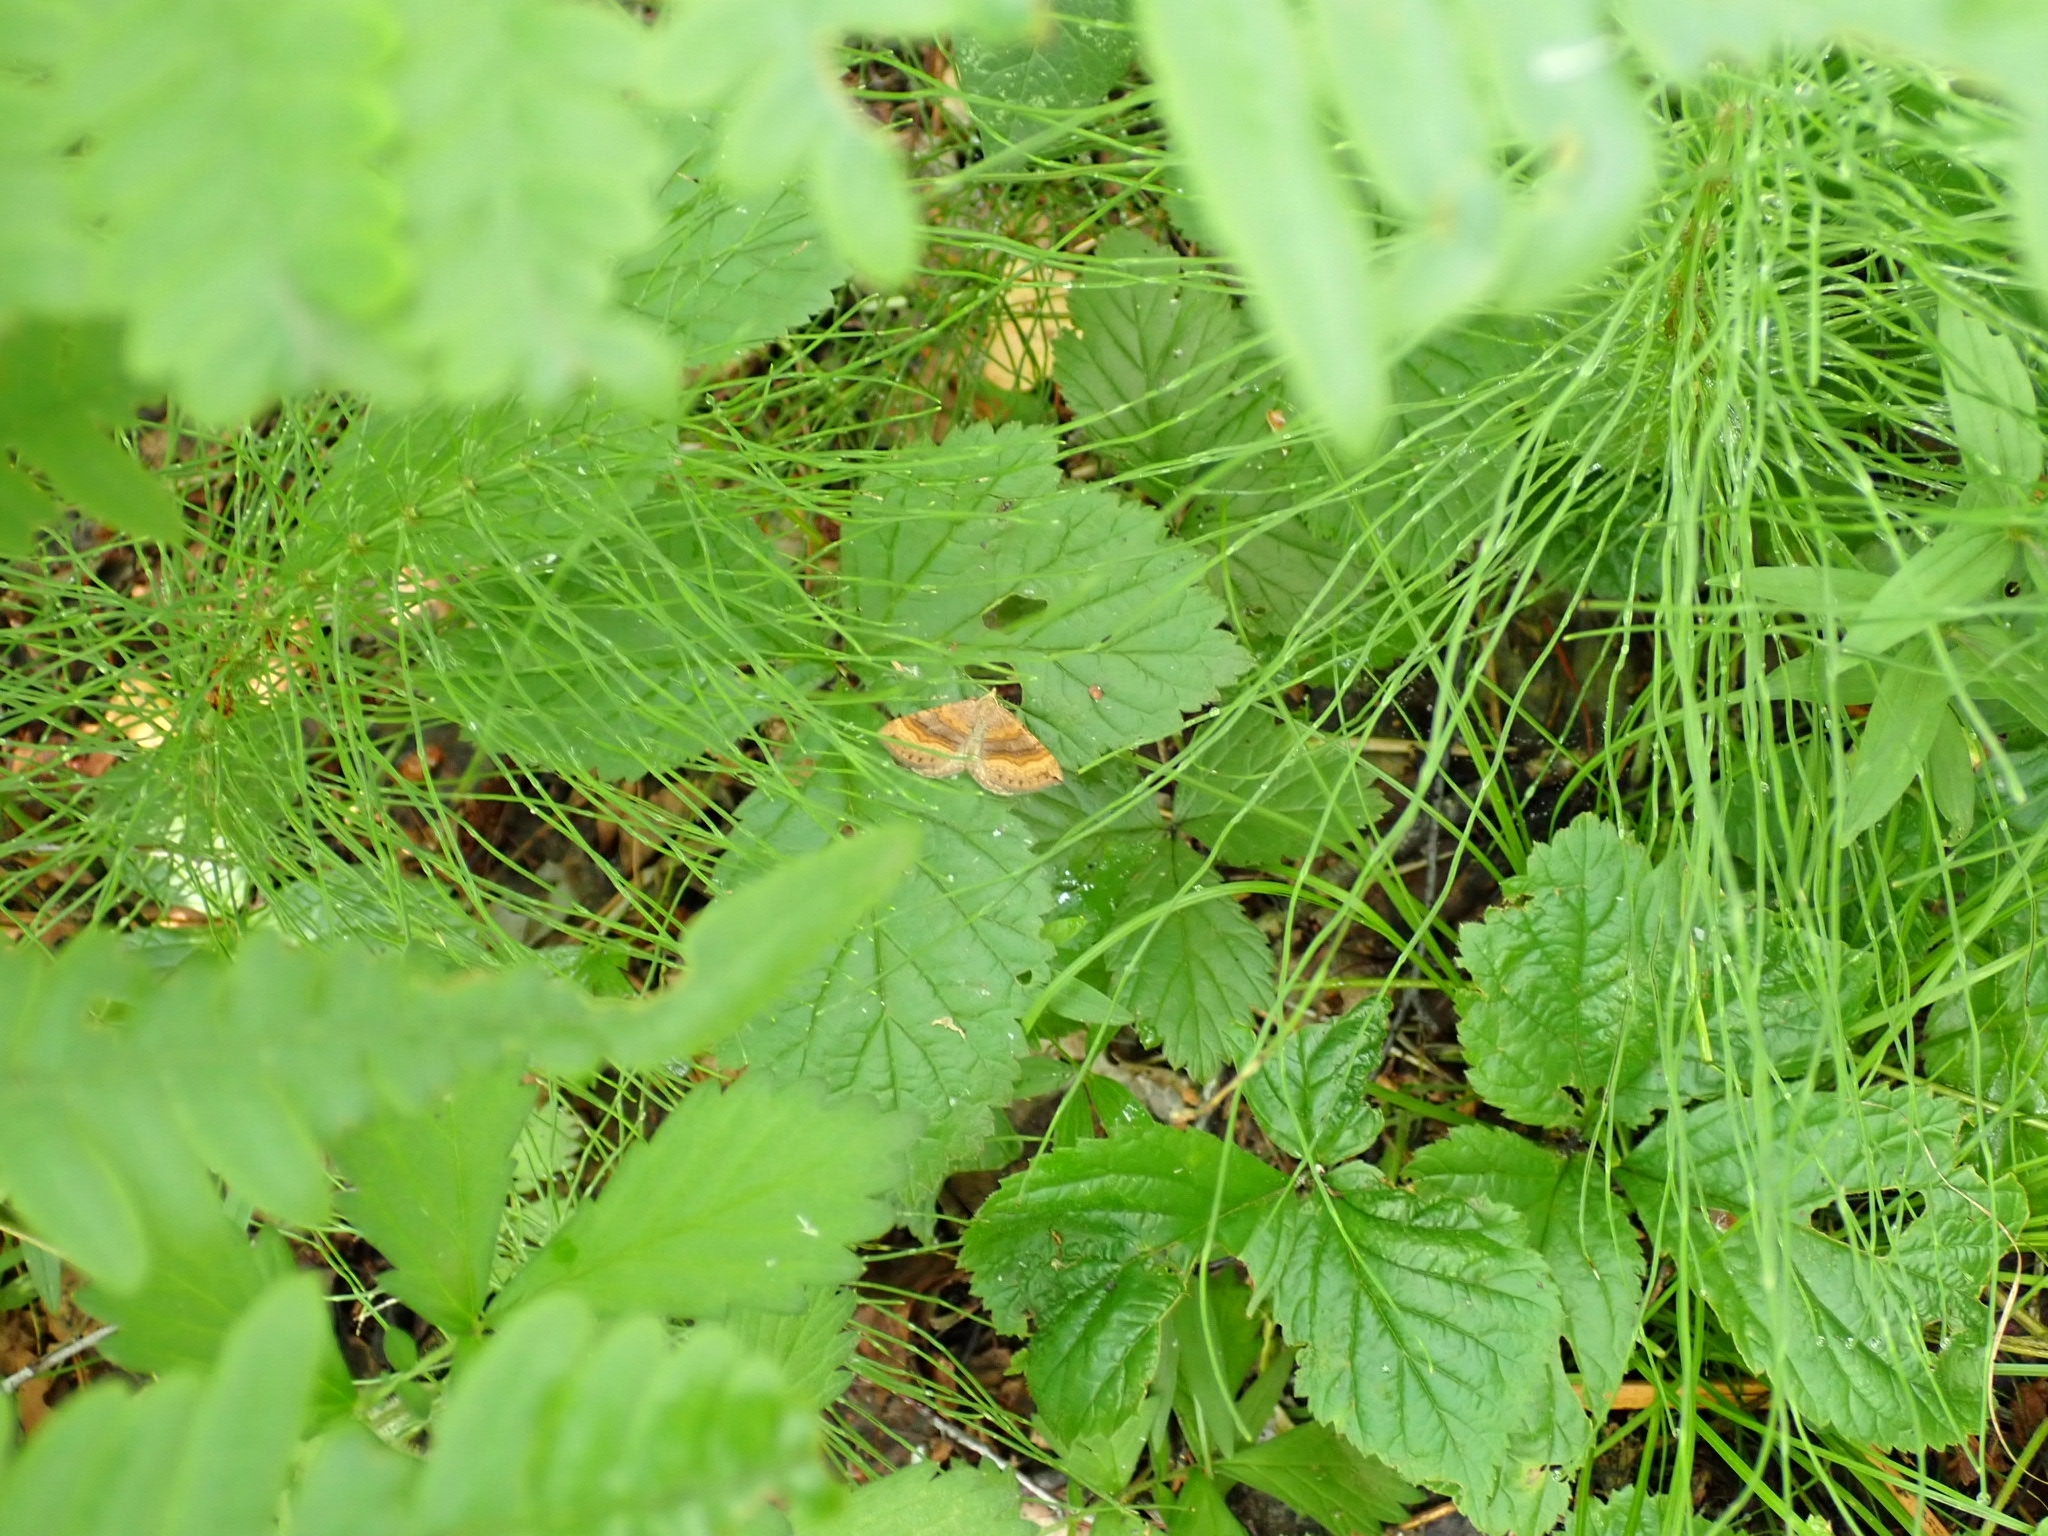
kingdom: Animalia
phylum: Arthropoda
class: Insecta
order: Lepidoptera
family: Geometridae
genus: Scotopteryx
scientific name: Scotopteryx chenopodiata
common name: Shaded broad-bar
